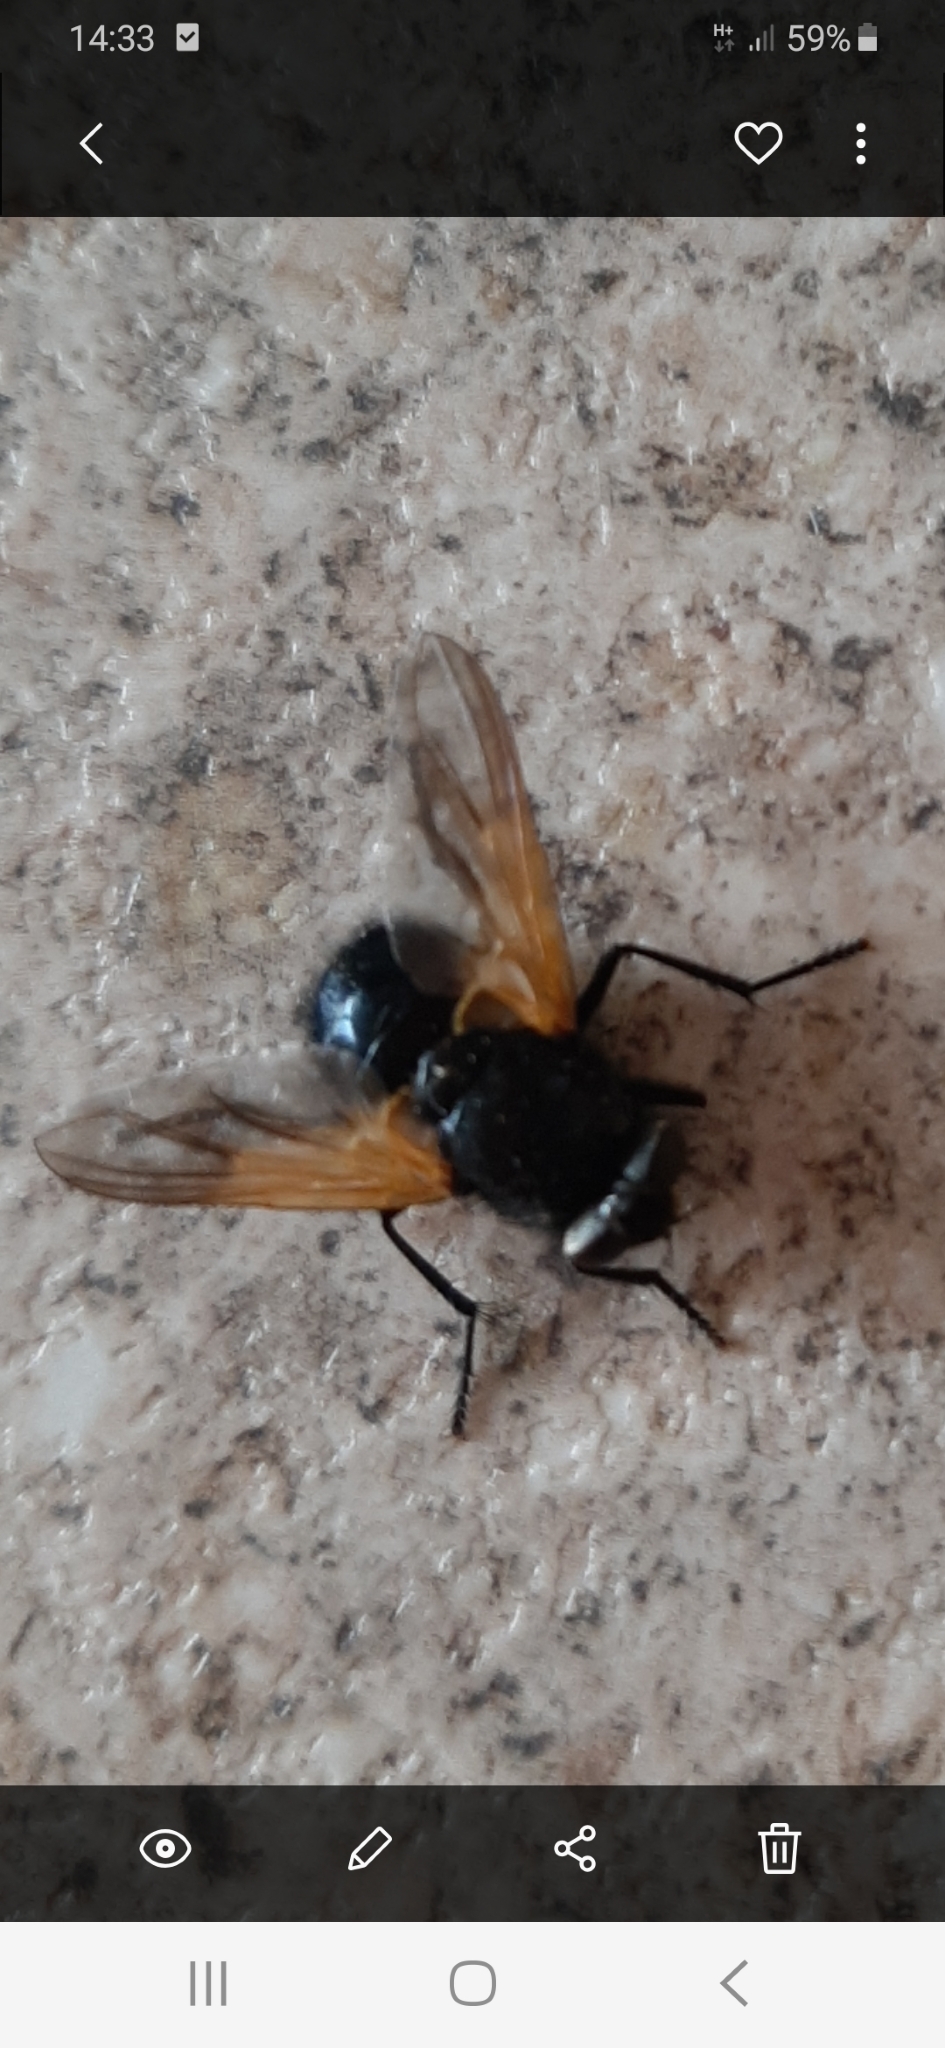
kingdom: Animalia
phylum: Arthropoda
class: Insecta
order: Diptera
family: Muscidae
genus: Mesembrina
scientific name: Mesembrina meridiana
